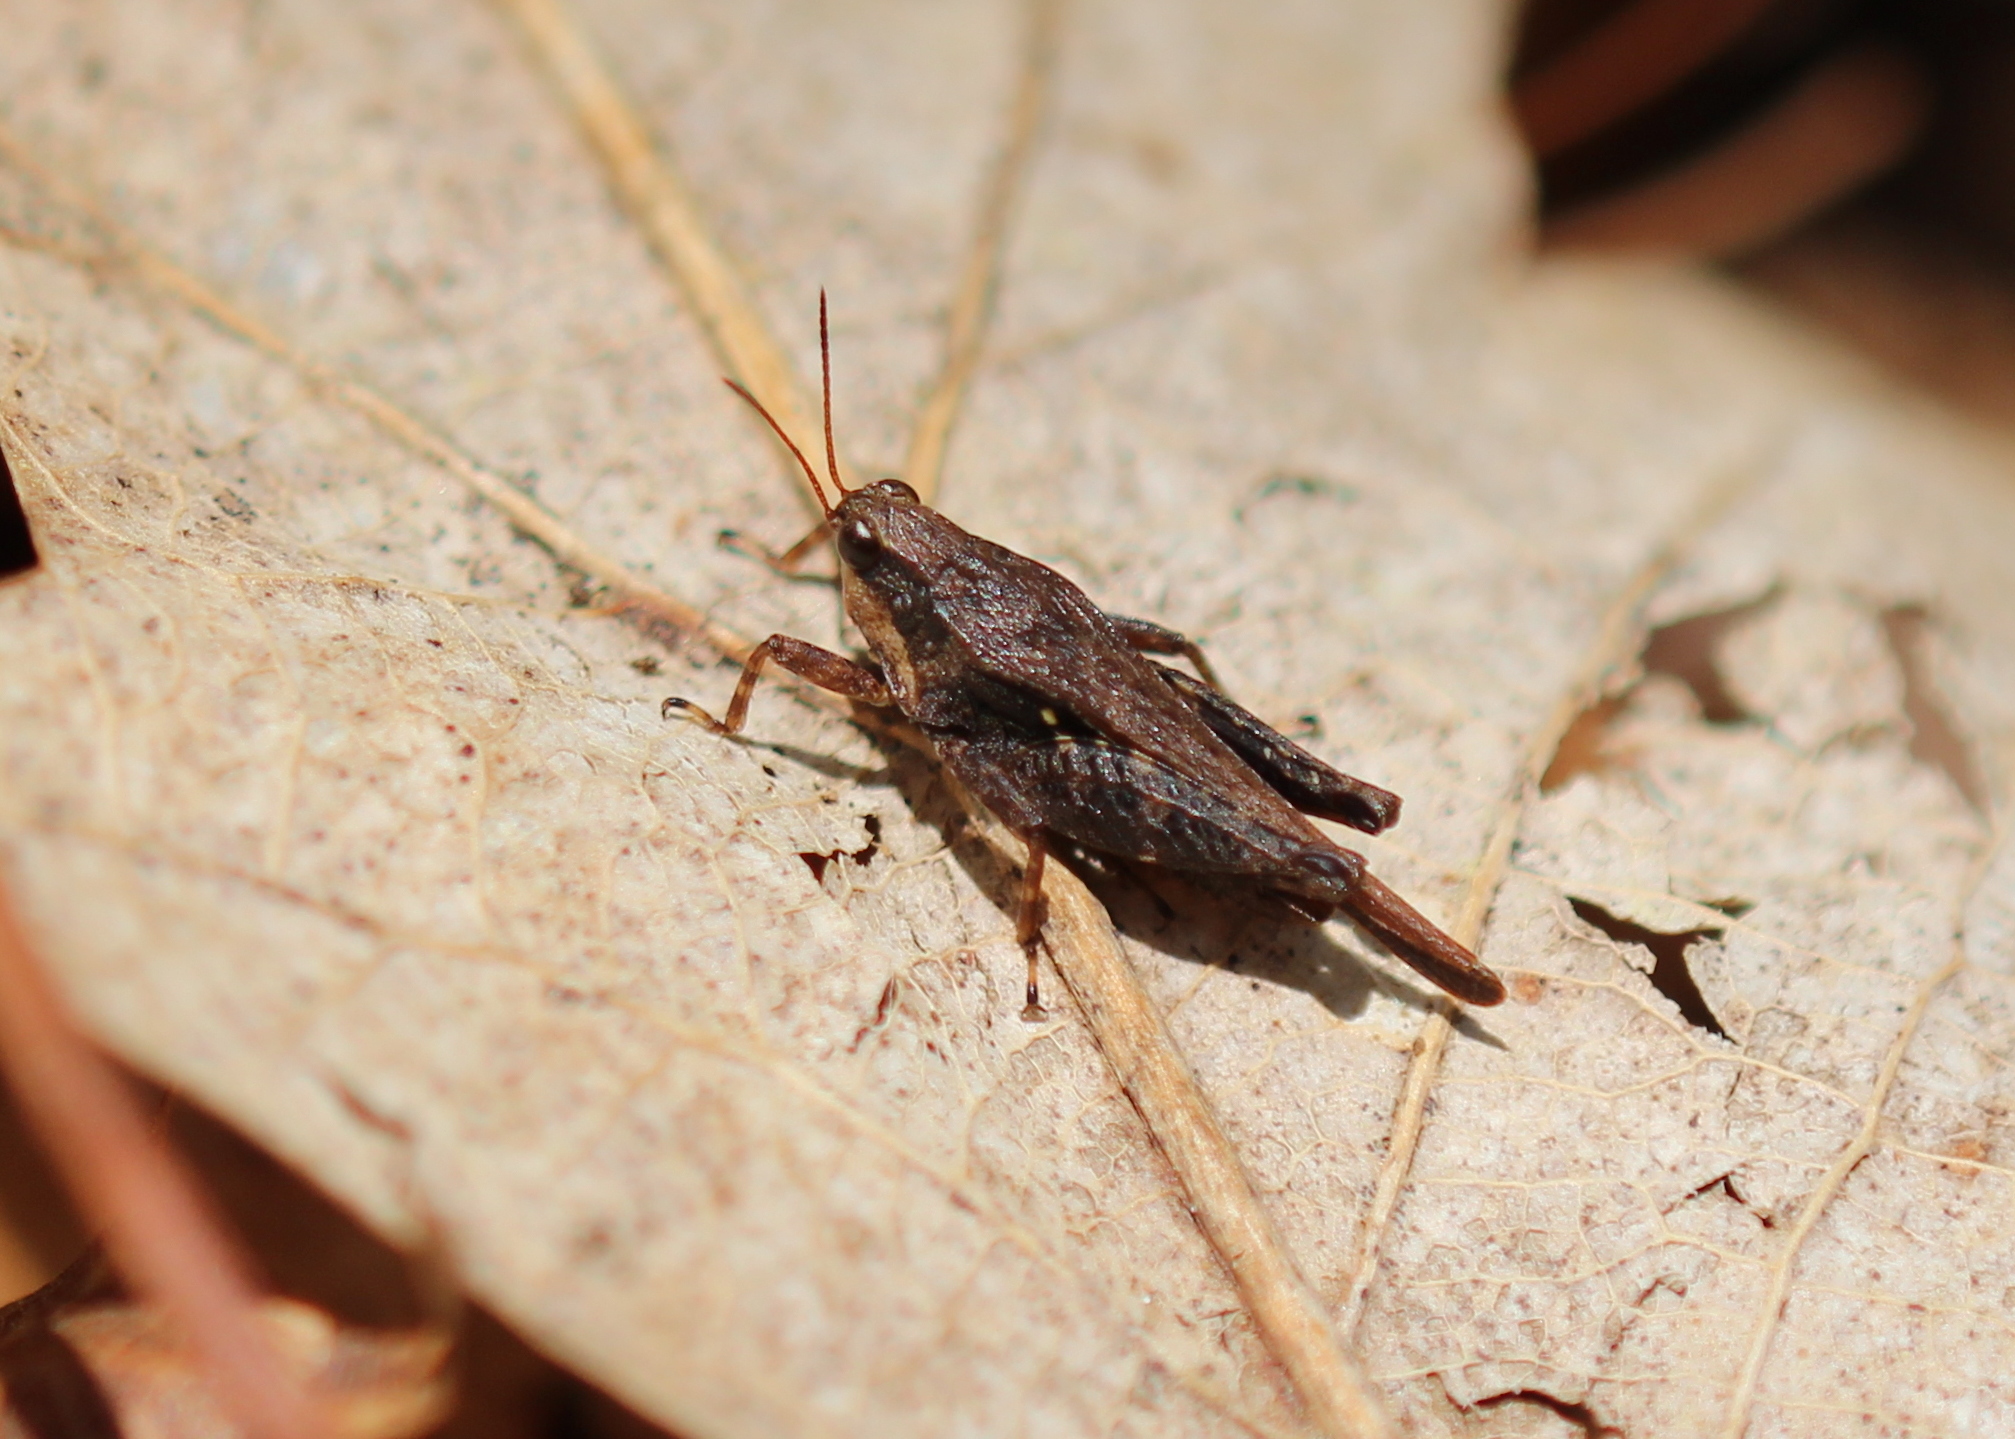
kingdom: Animalia
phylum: Arthropoda
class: Insecta
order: Orthoptera
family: Tetrigidae
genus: Tettigidea
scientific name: Tettigidea laterale
